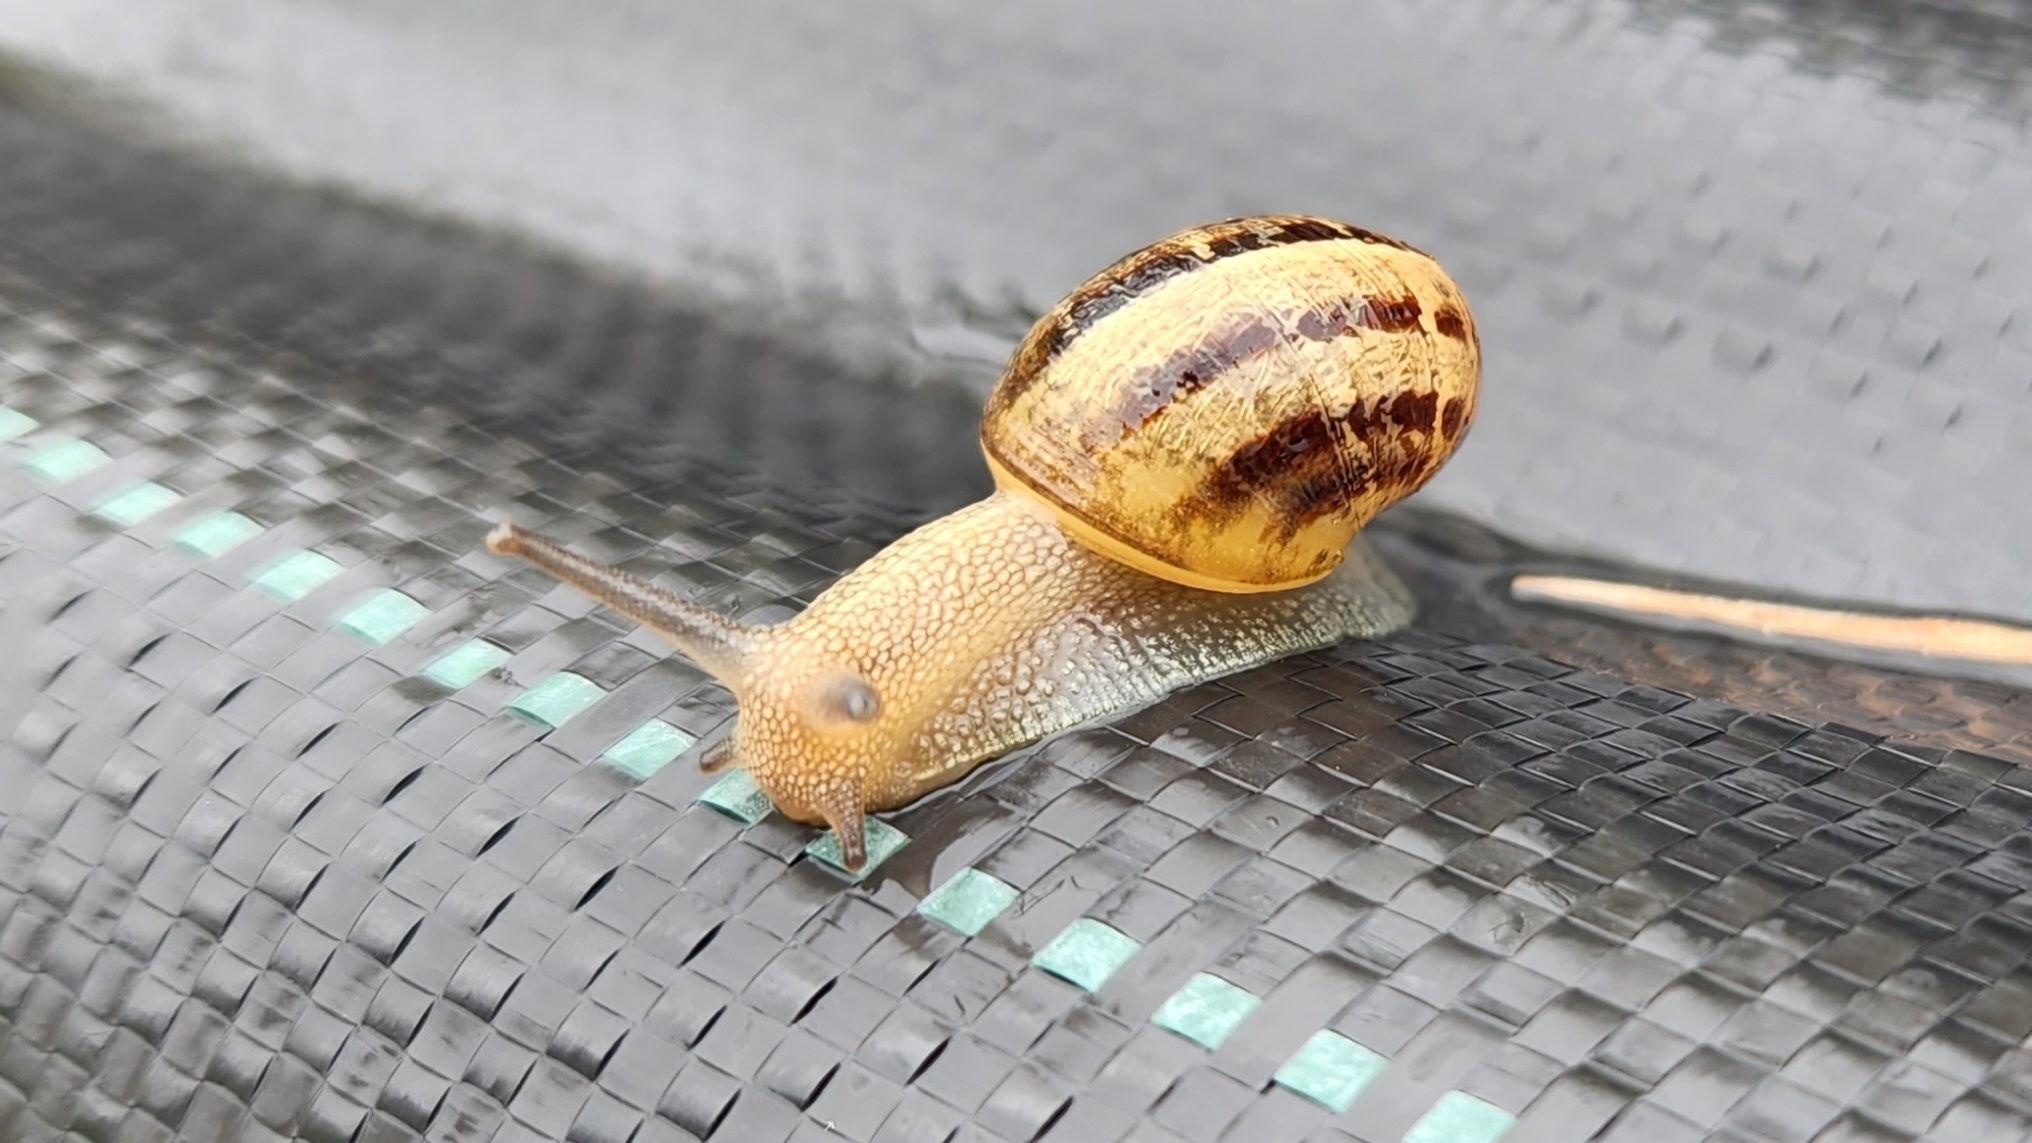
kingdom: Animalia
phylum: Mollusca
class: Gastropoda
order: Stylommatophora
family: Helicidae
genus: Cornu
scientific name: Cornu aspersum
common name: Brown garden snail
